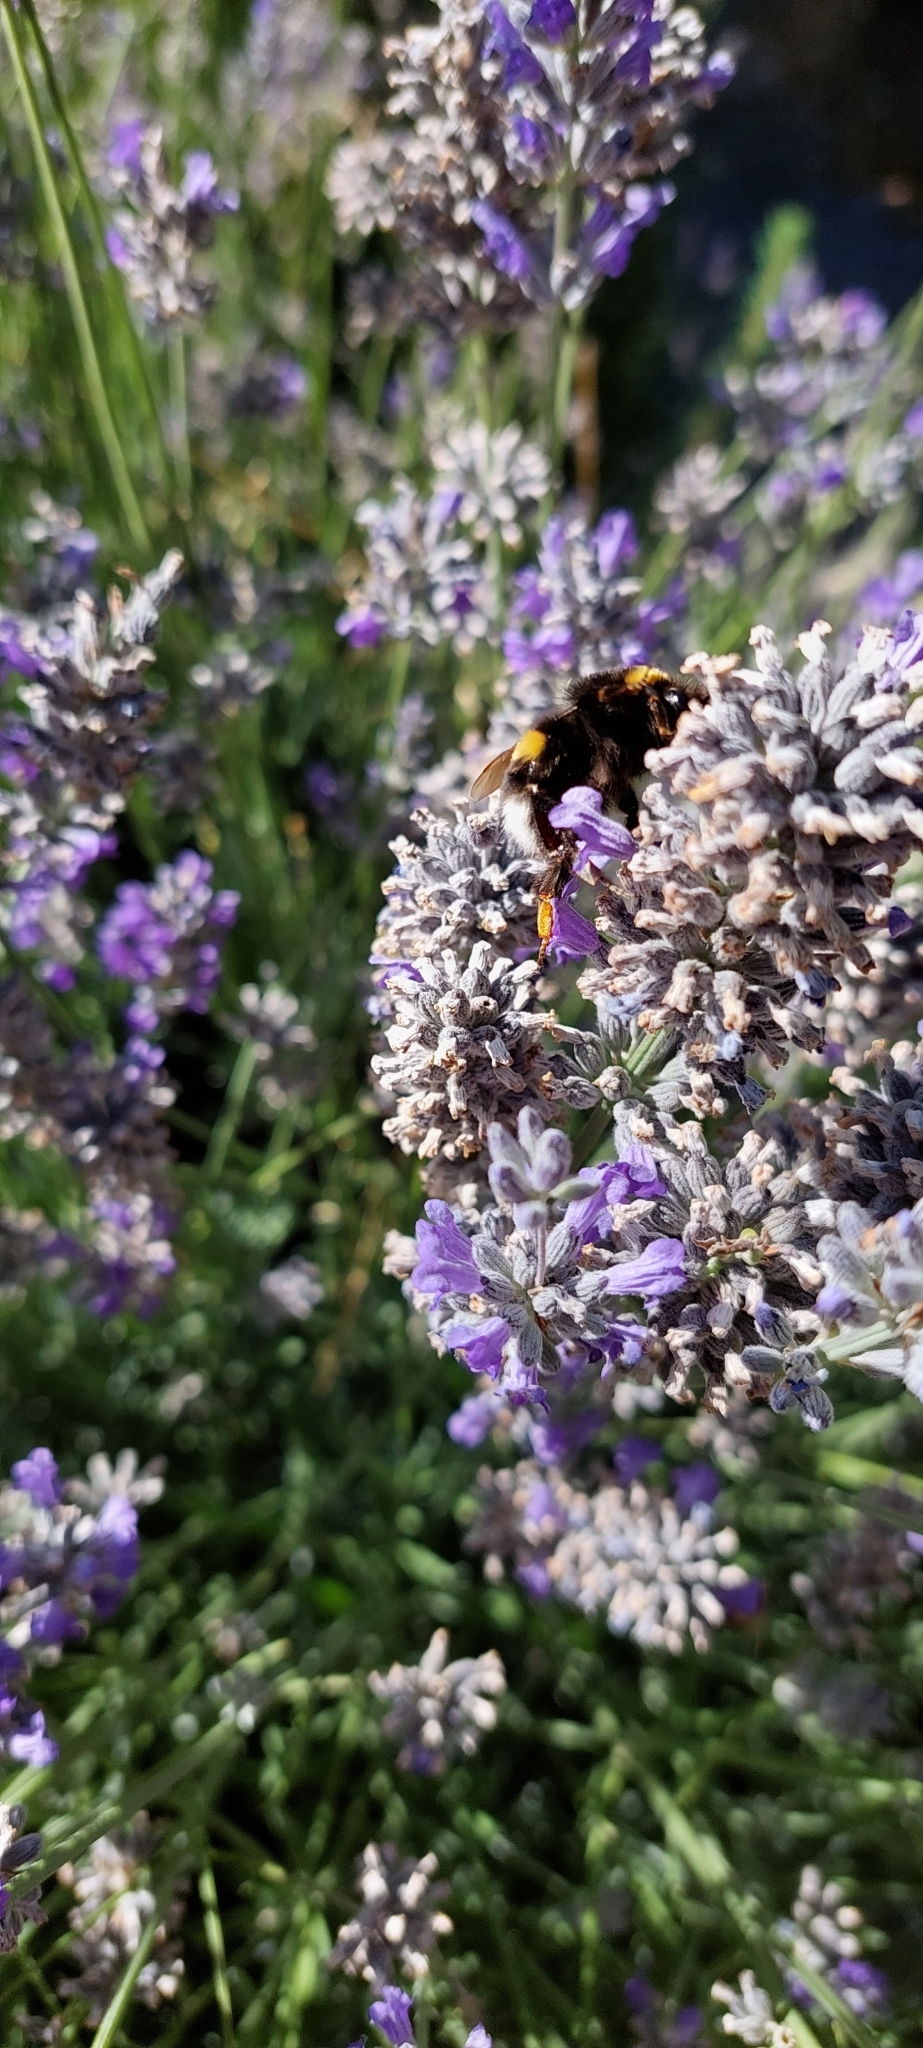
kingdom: Animalia
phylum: Arthropoda
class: Insecta
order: Hymenoptera
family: Apidae
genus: Bombus
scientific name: Bombus terrestris
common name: Buff-tailed bumblebee
